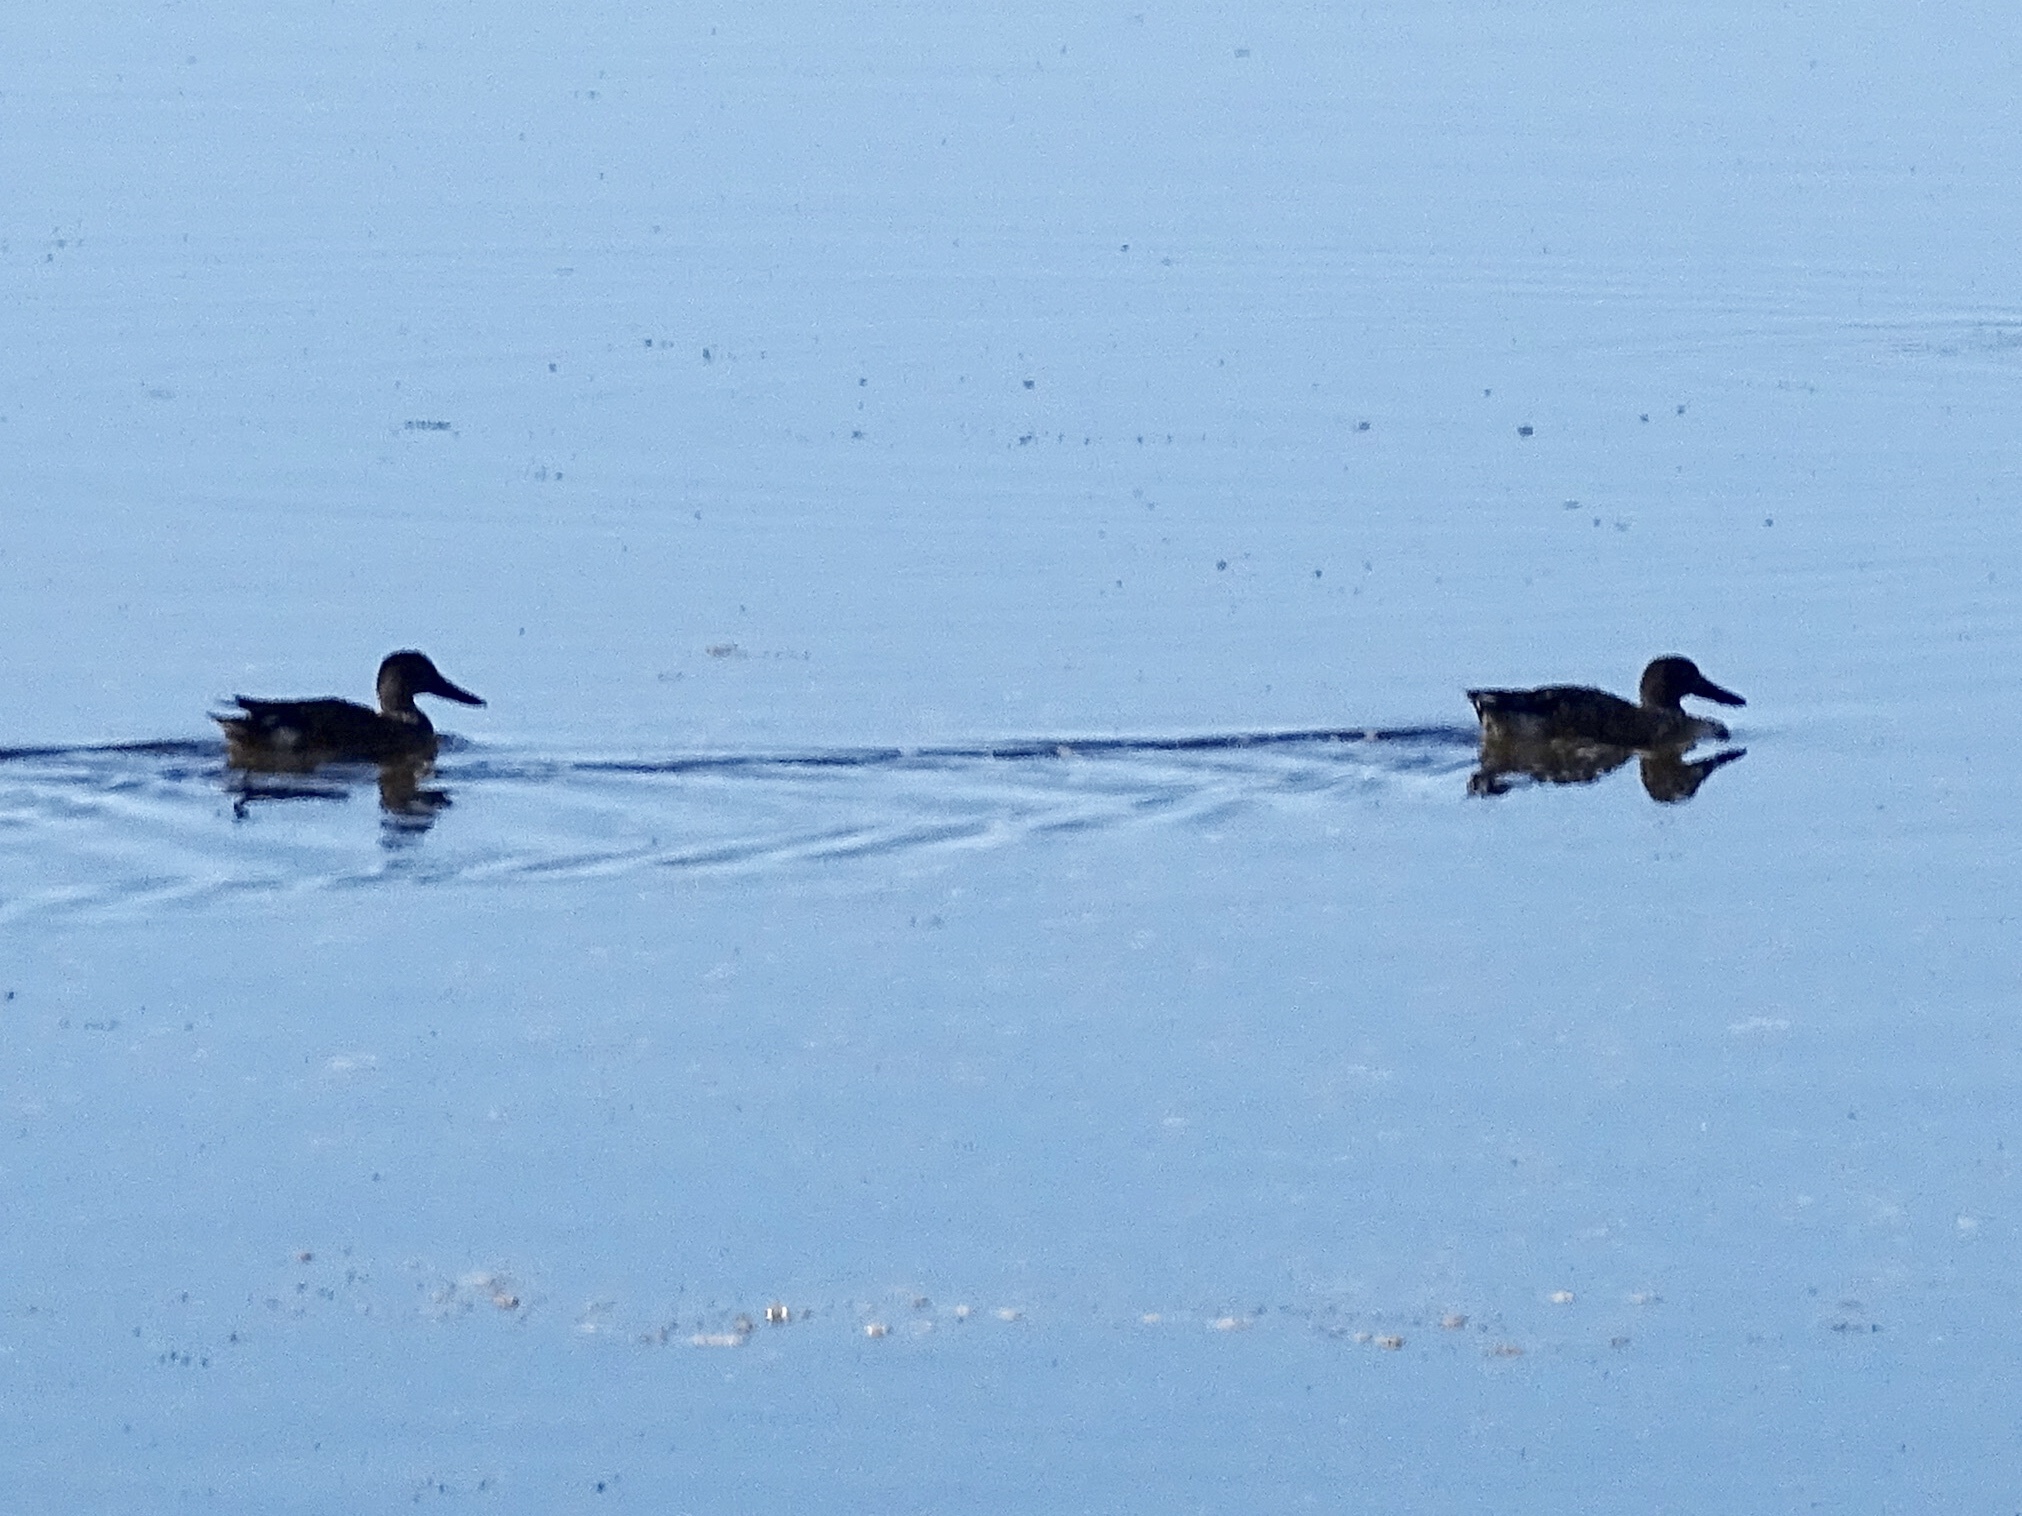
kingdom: Animalia
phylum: Chordata
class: Aves
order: Anseriformes
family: Anatidae
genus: Spatula
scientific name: Spatula clypeata
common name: Northern shoveler
